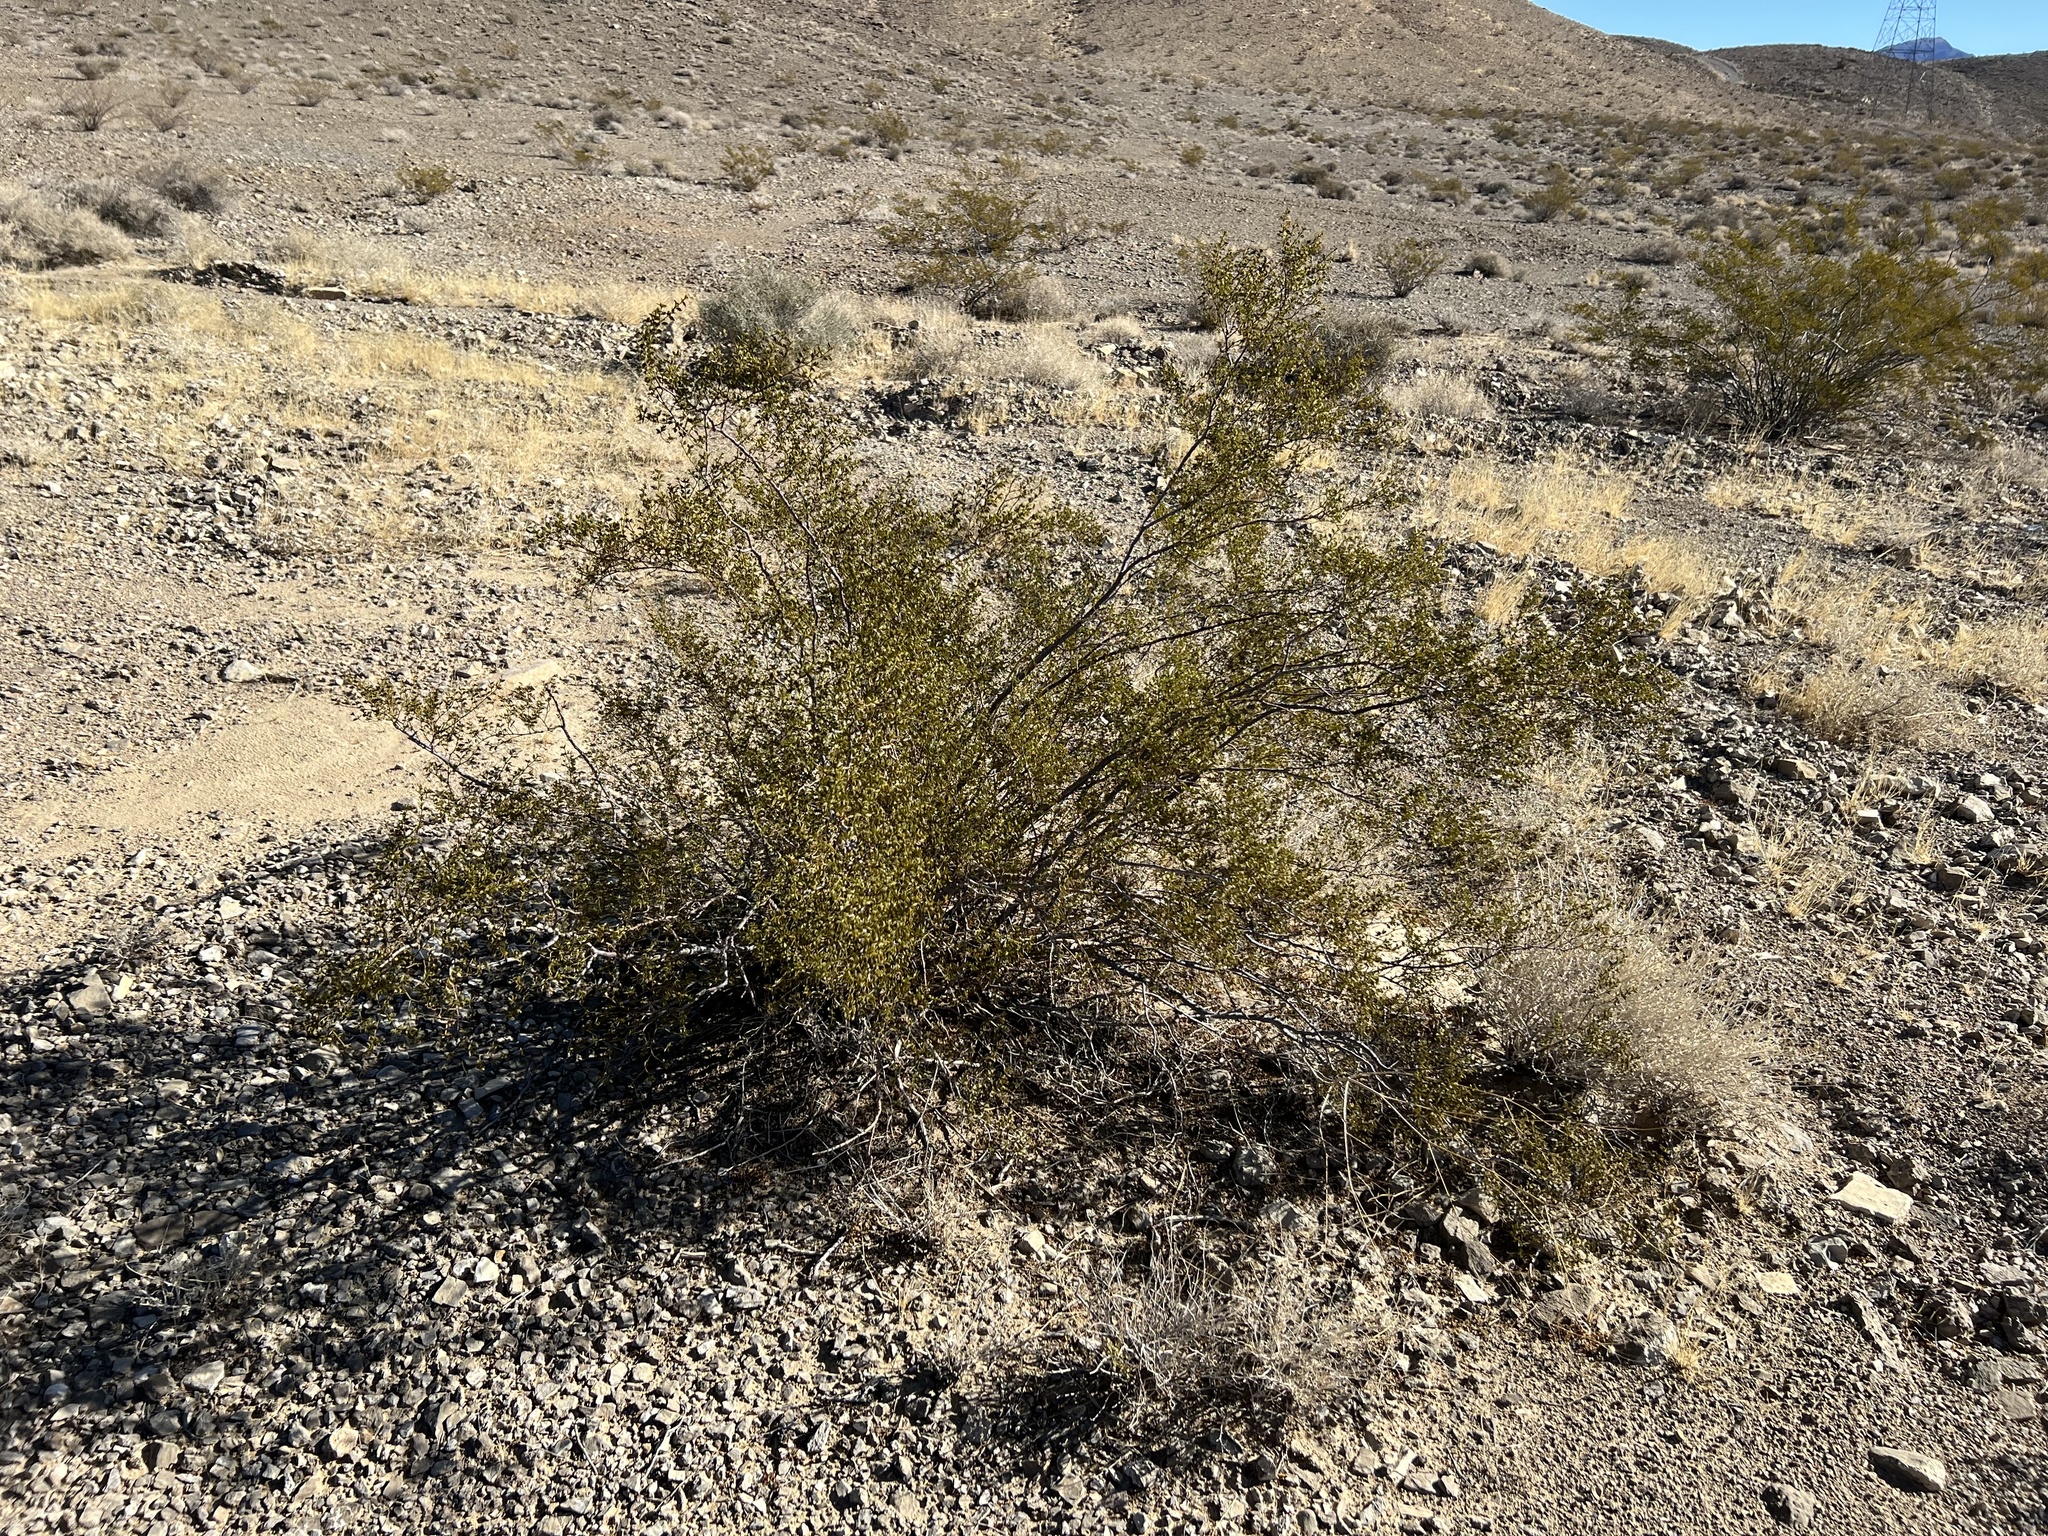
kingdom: Plantae
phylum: Tracheophyta
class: Magnoliopsida
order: Zygophyllales
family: Zygophyllaceae
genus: Larrea
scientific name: Larrea tridentata
